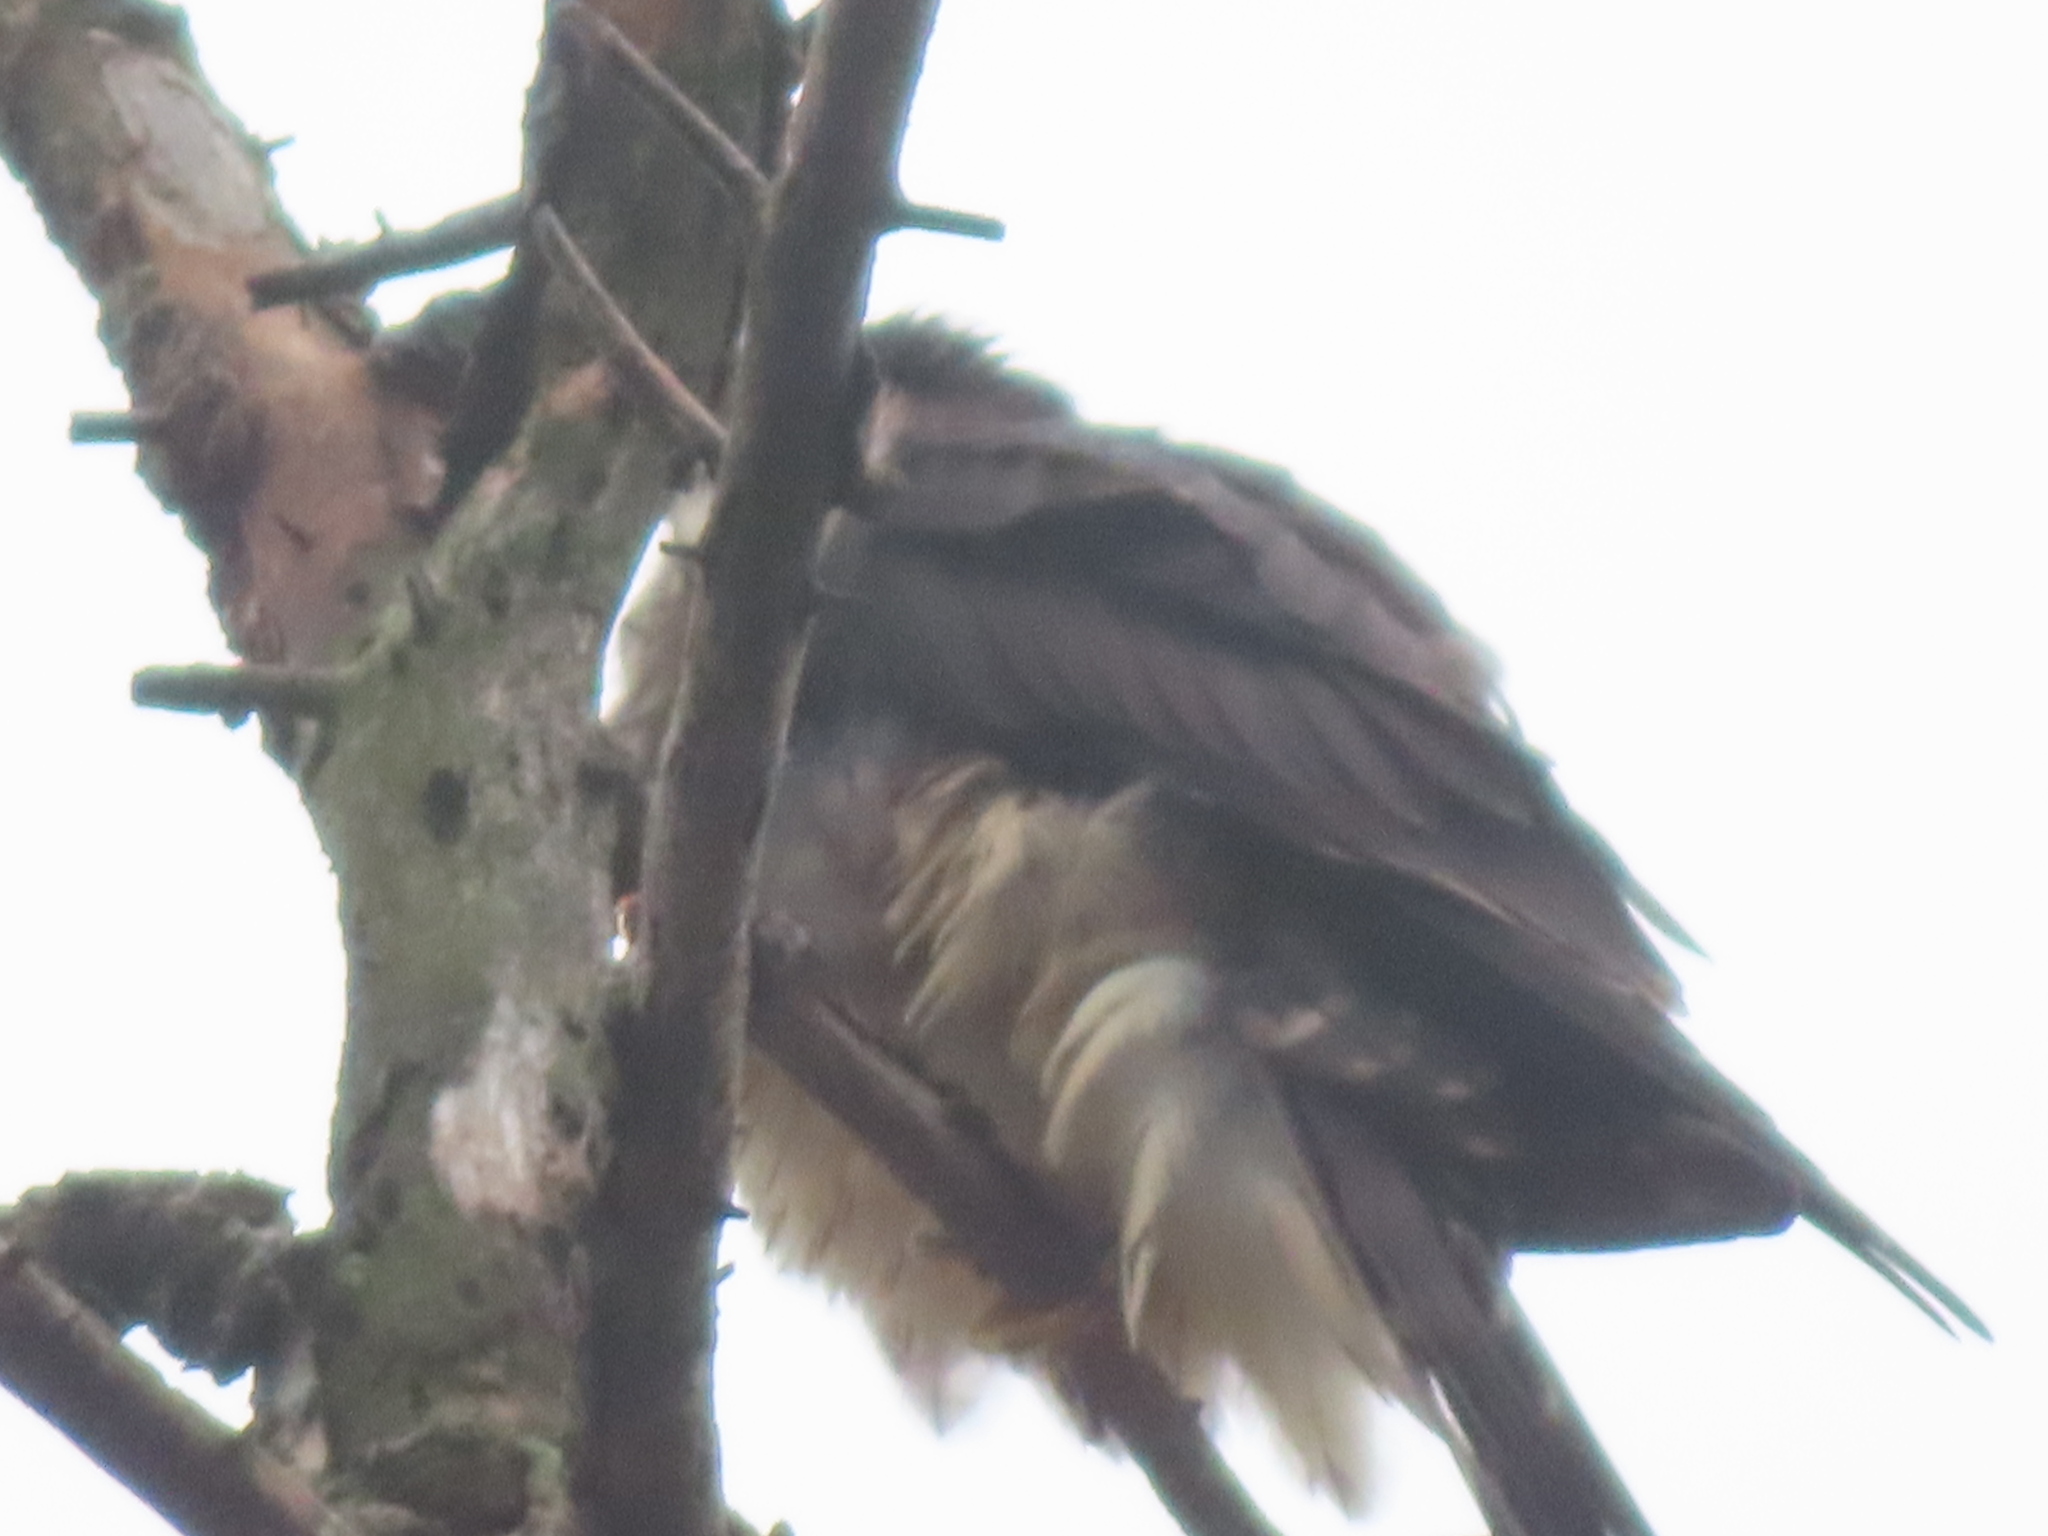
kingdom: Animalia
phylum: Chordata
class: Aves
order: Falconiformes
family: Falconidae
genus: Falco
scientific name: Falco columbarius
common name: Merlin
